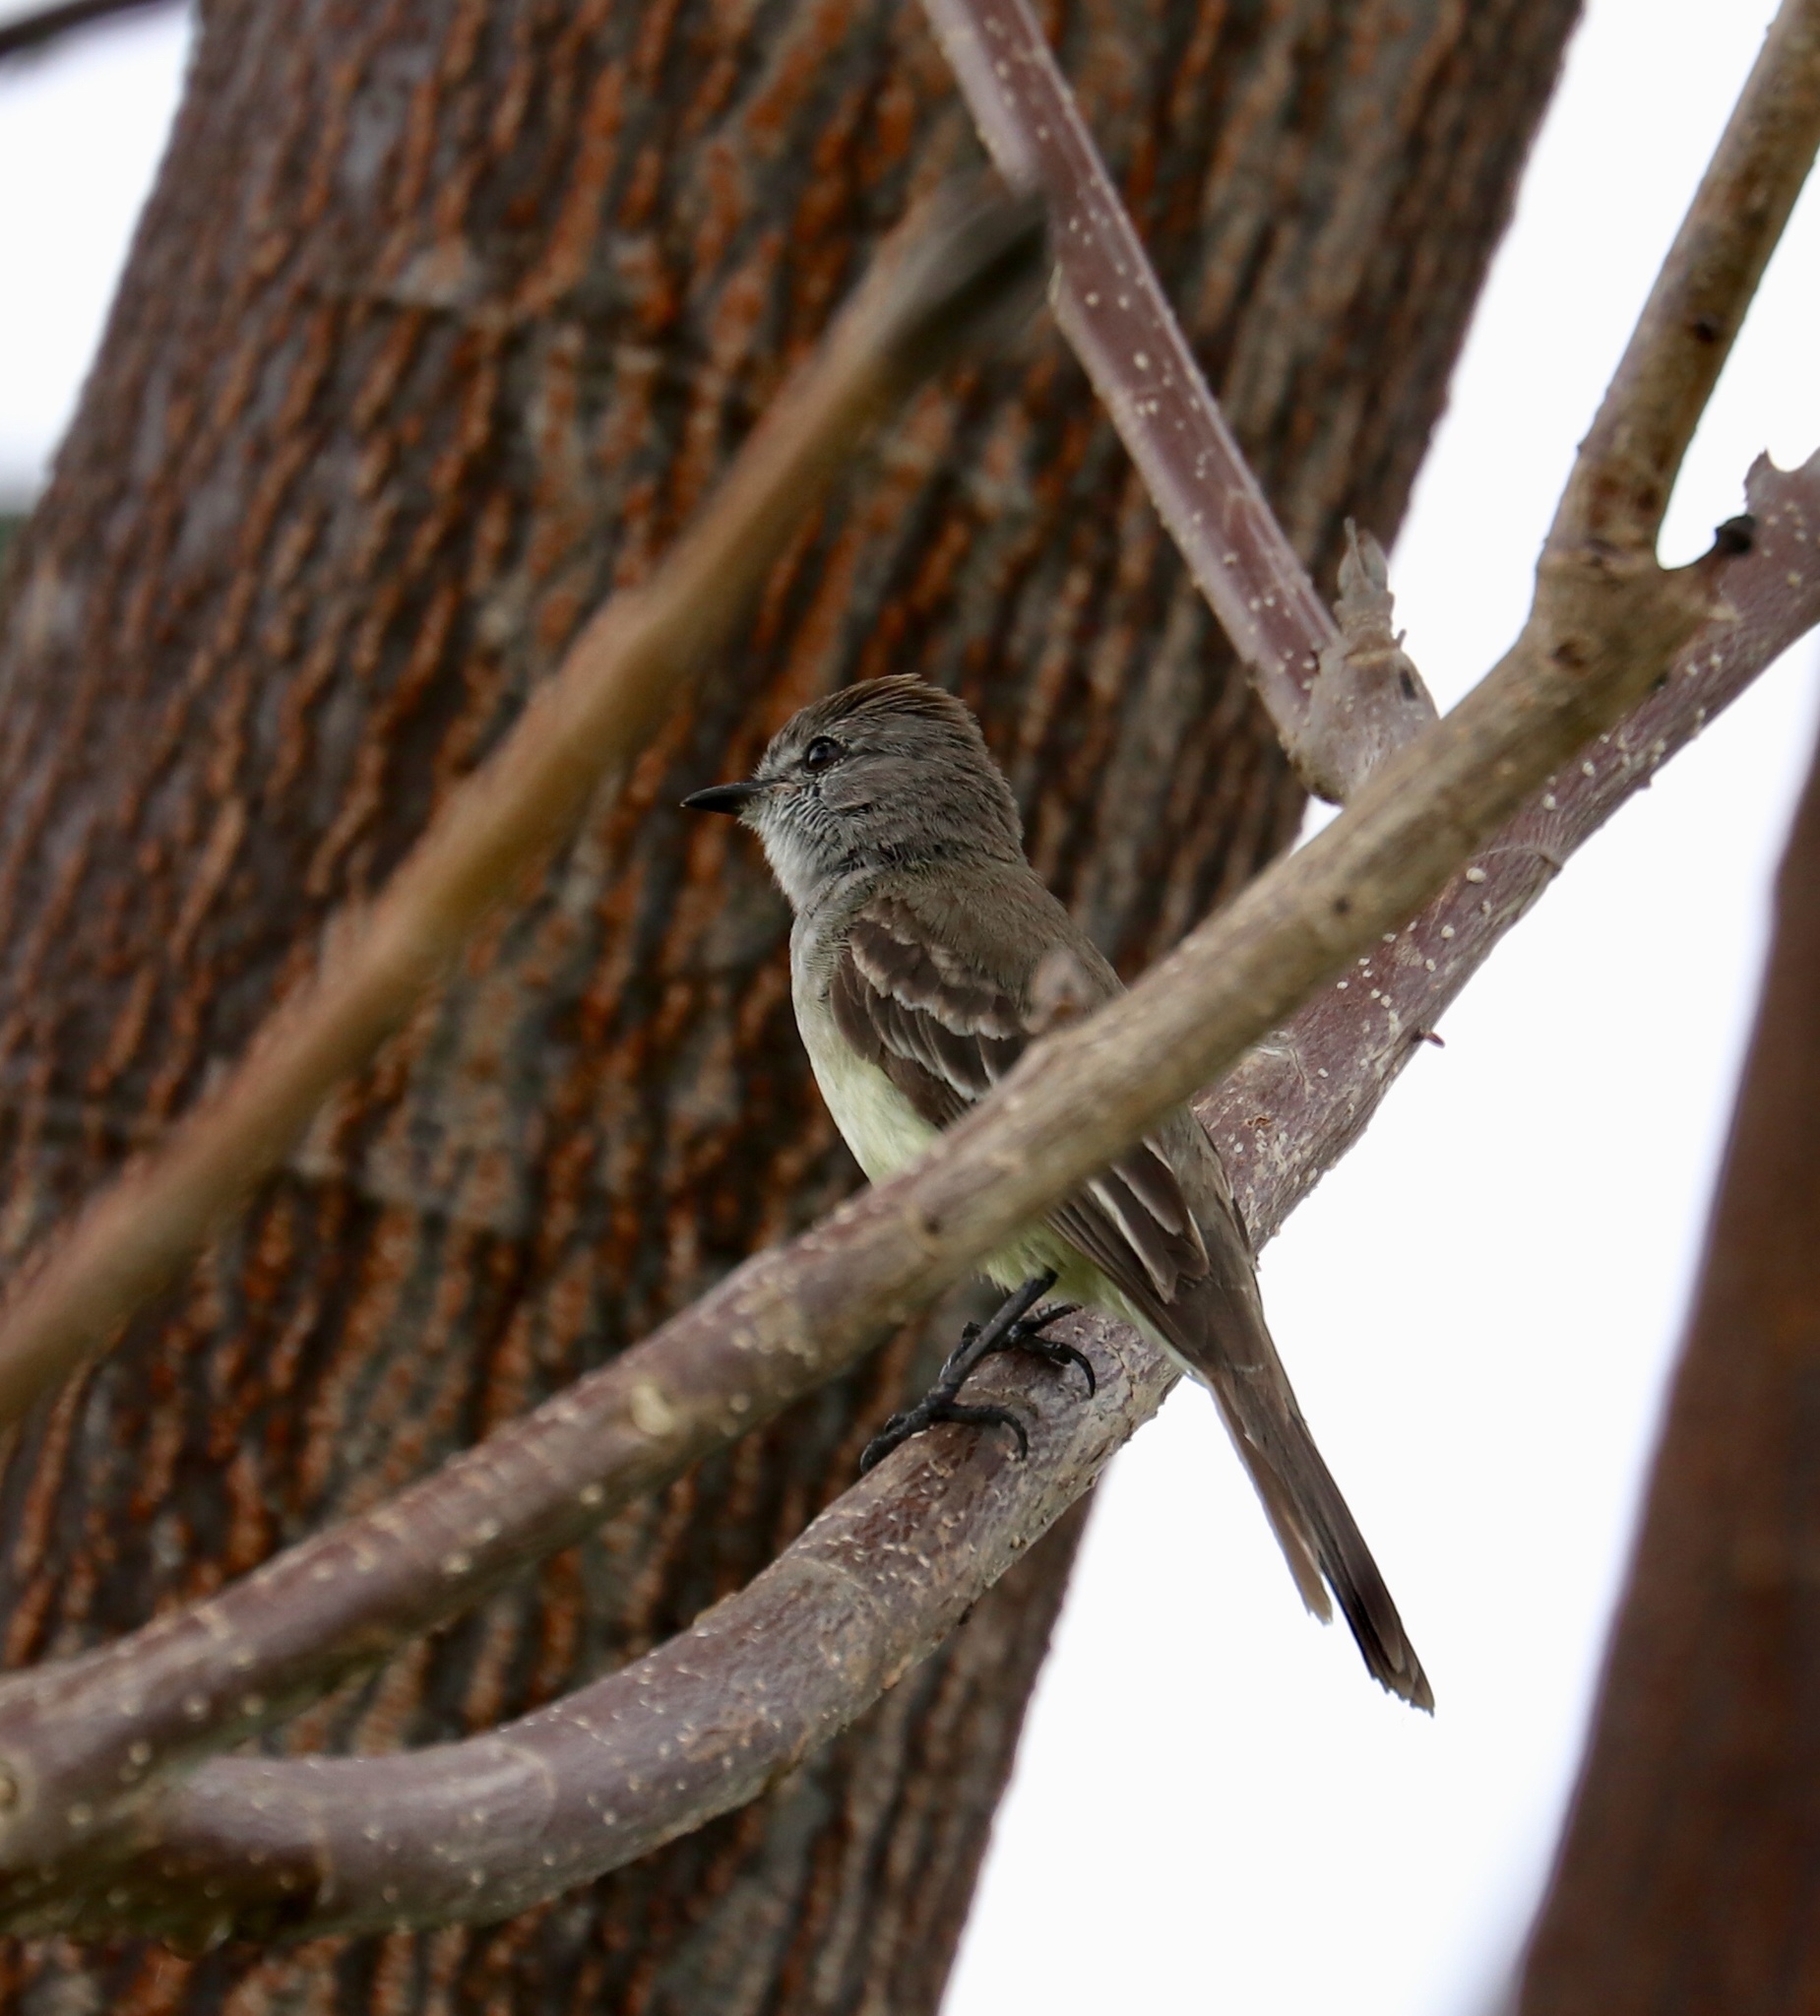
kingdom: Animalia
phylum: Chordata
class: Aves
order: Passeriformes
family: Tyrannidae
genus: Sublegatus
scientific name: Sublegatus arenarum
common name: Northern scrub-flycatcher
